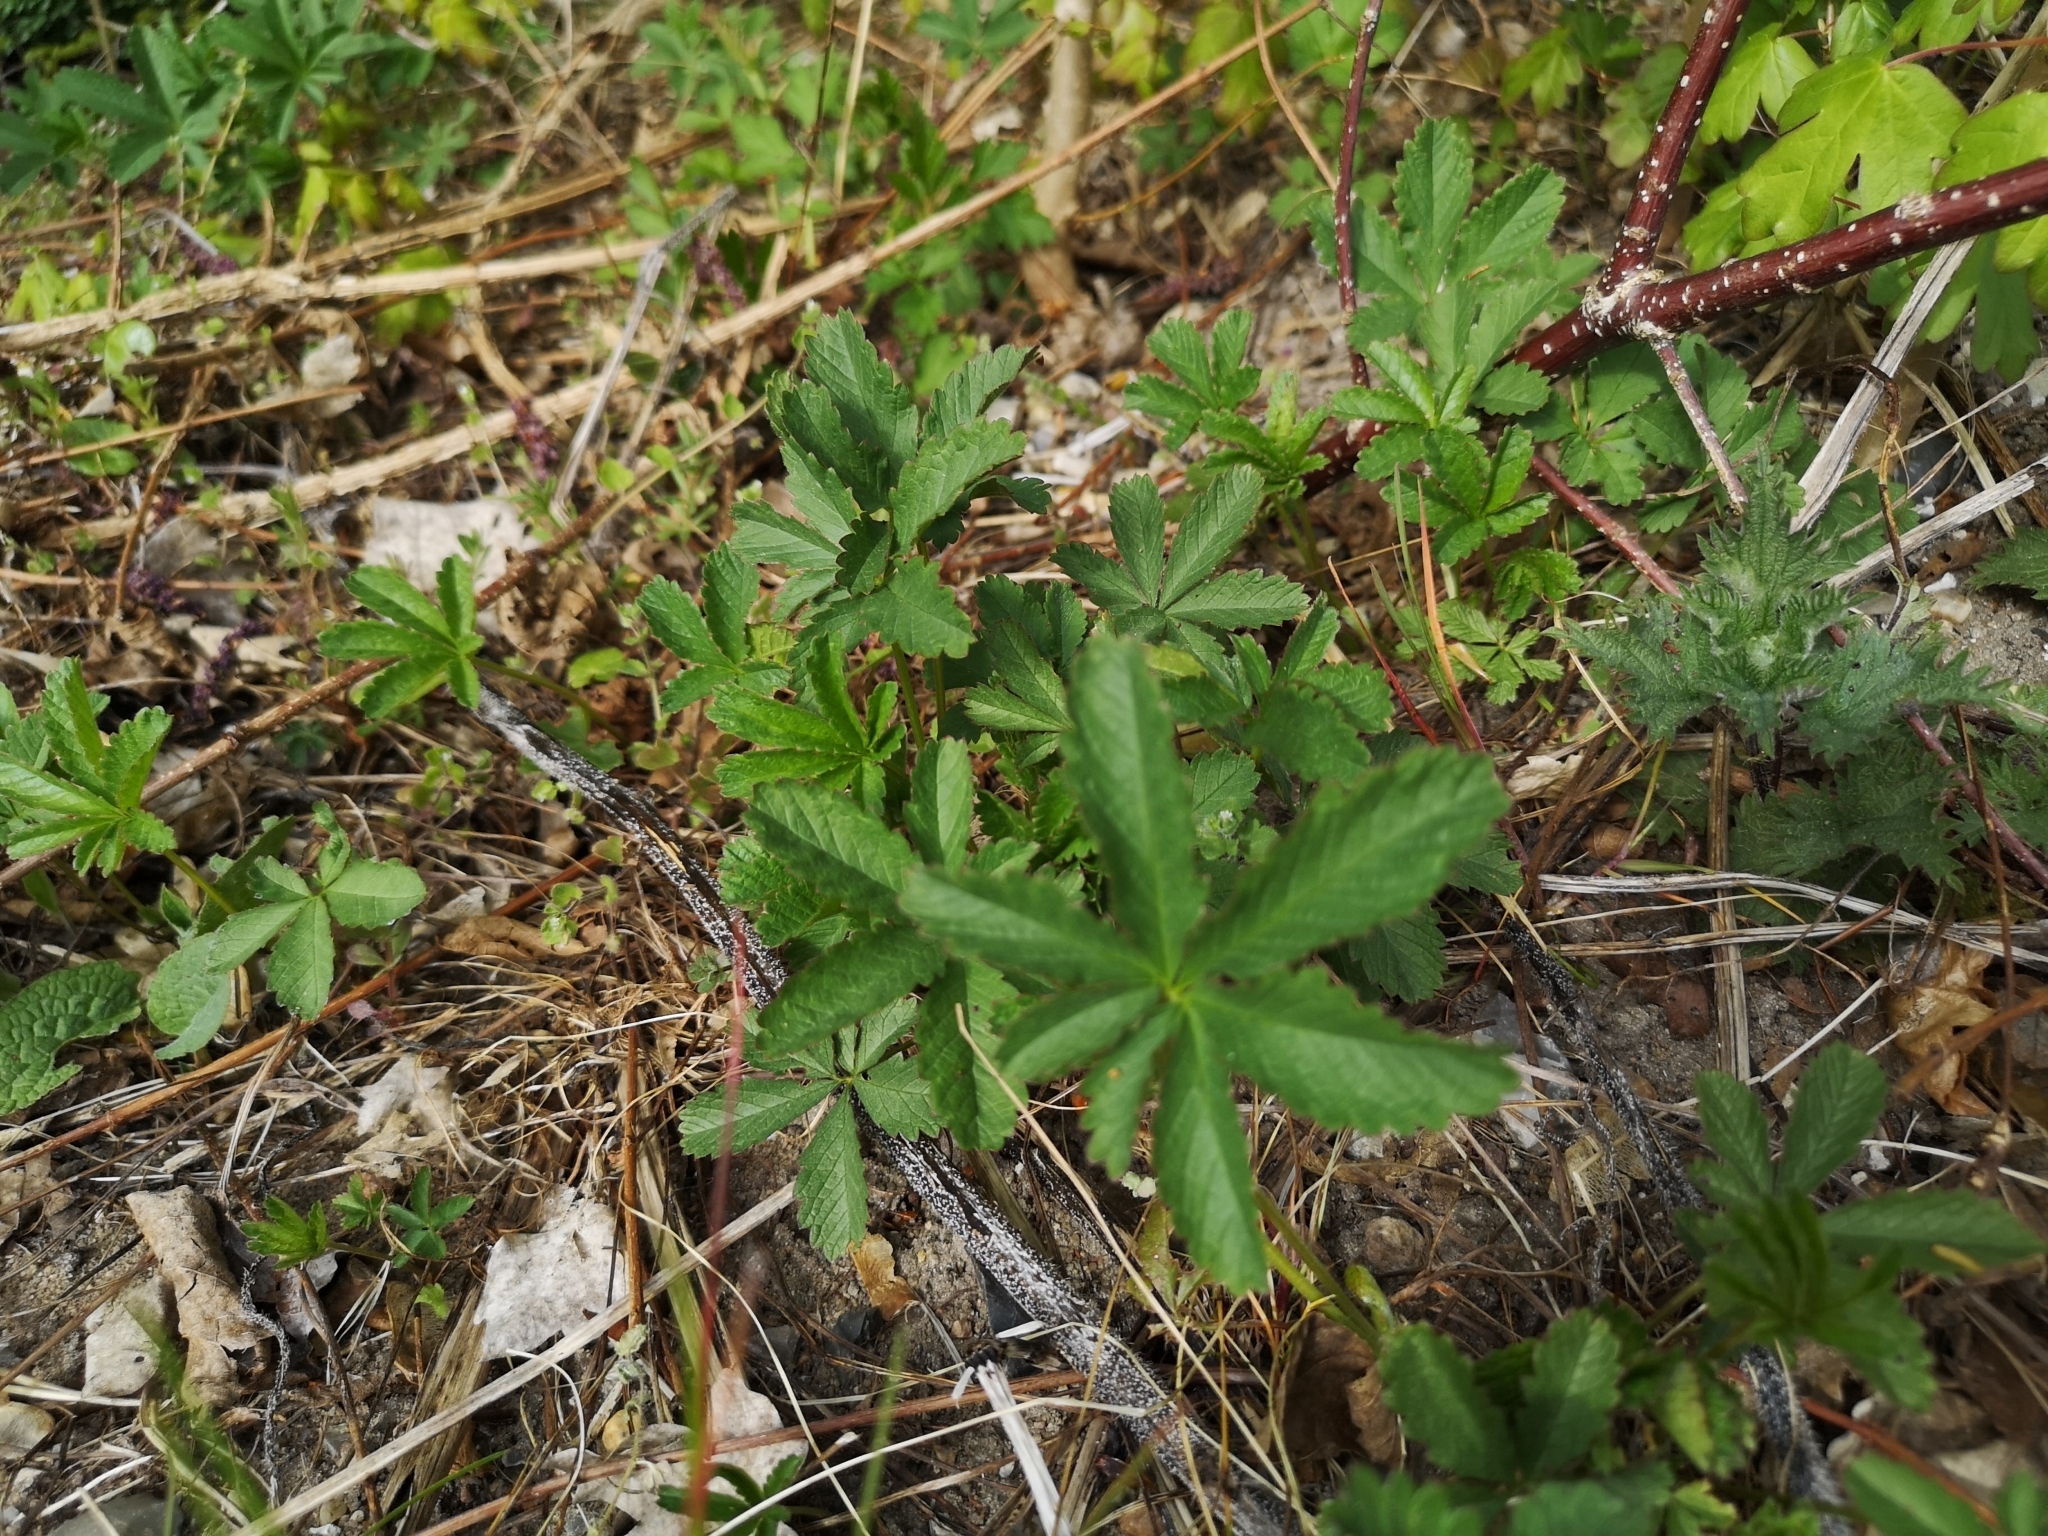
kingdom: Plantae
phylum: Tracheophyta
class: Magnoliopsida
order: Rosales
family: Rosaceae
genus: Potentilla
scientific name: Potentilla reptans
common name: Creeping cinquefoil
